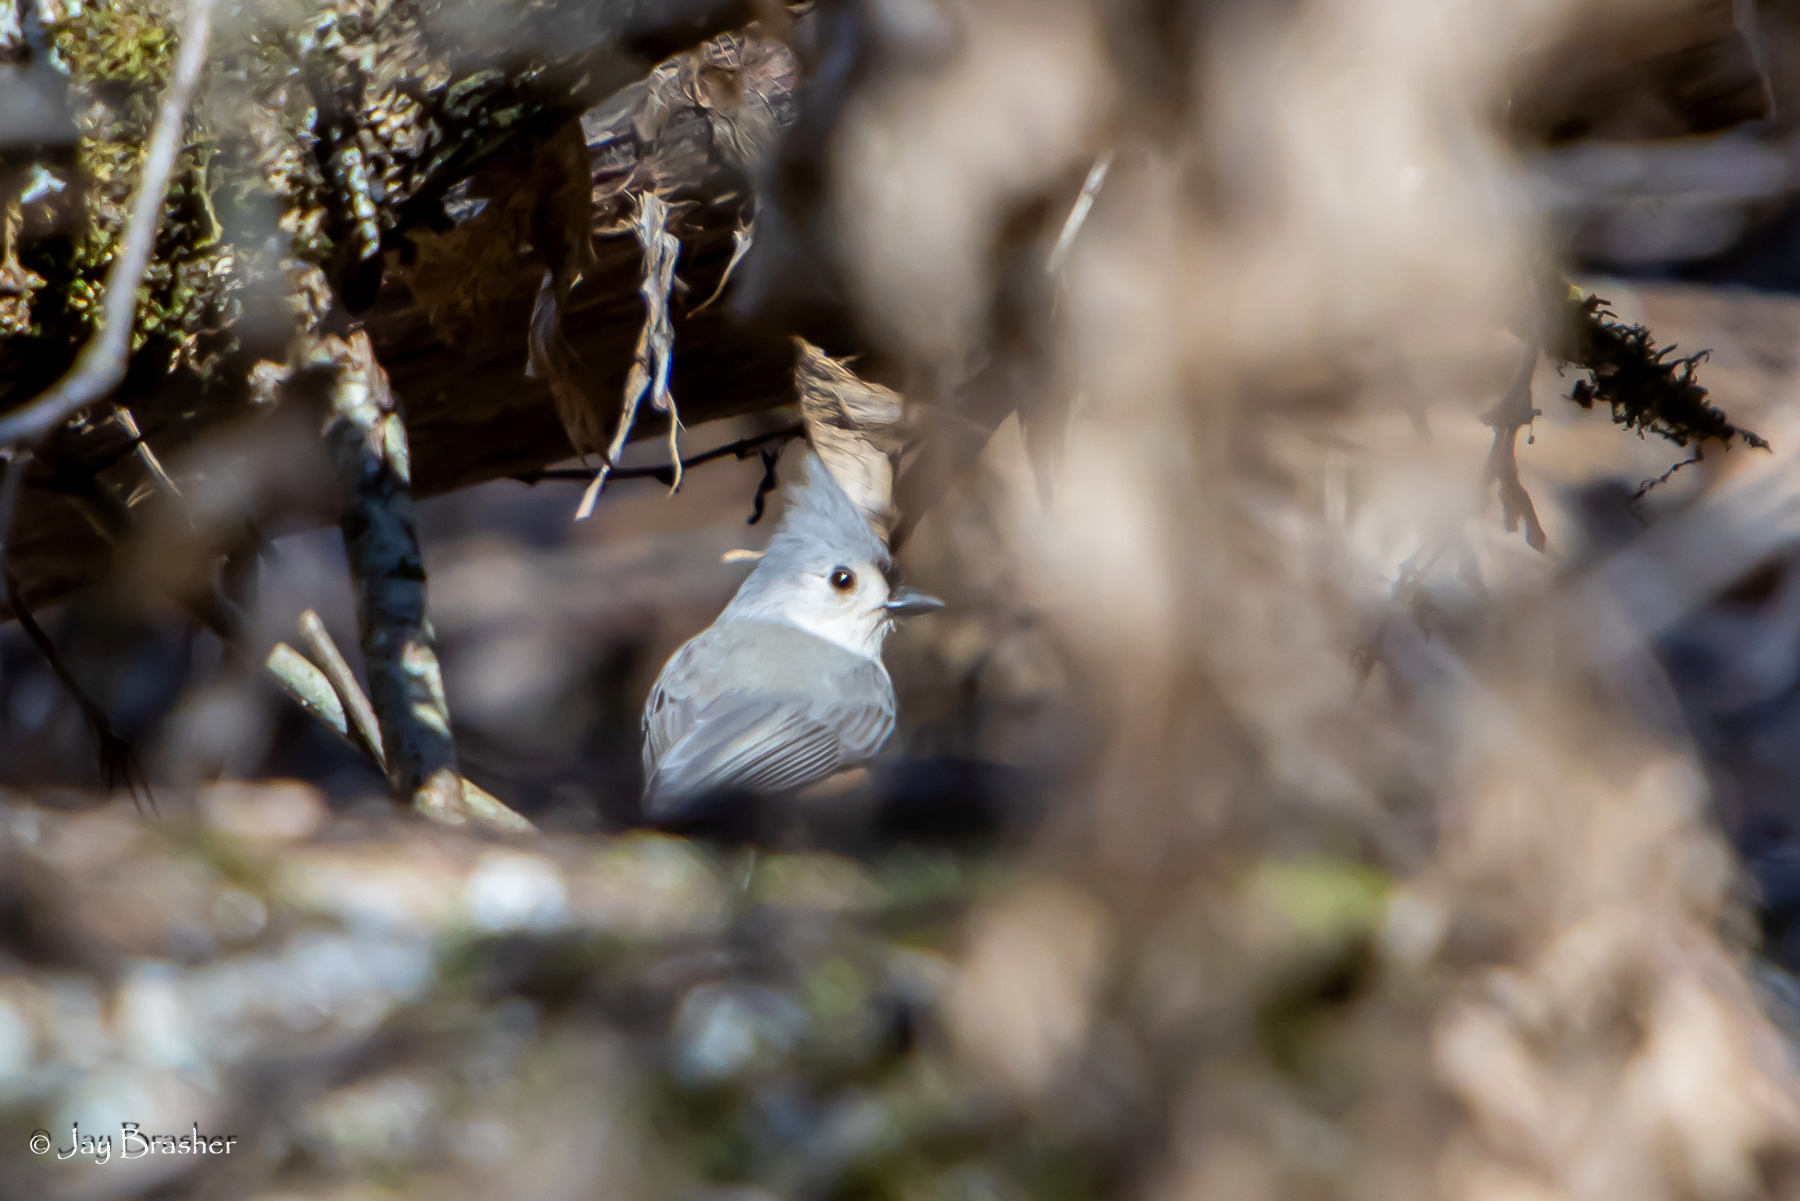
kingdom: Animalia
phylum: Chordata
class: Aves
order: Passeriformes
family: Paridae
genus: Baeolophus
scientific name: Baeolophus bicolor
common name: Tufted titmouse
